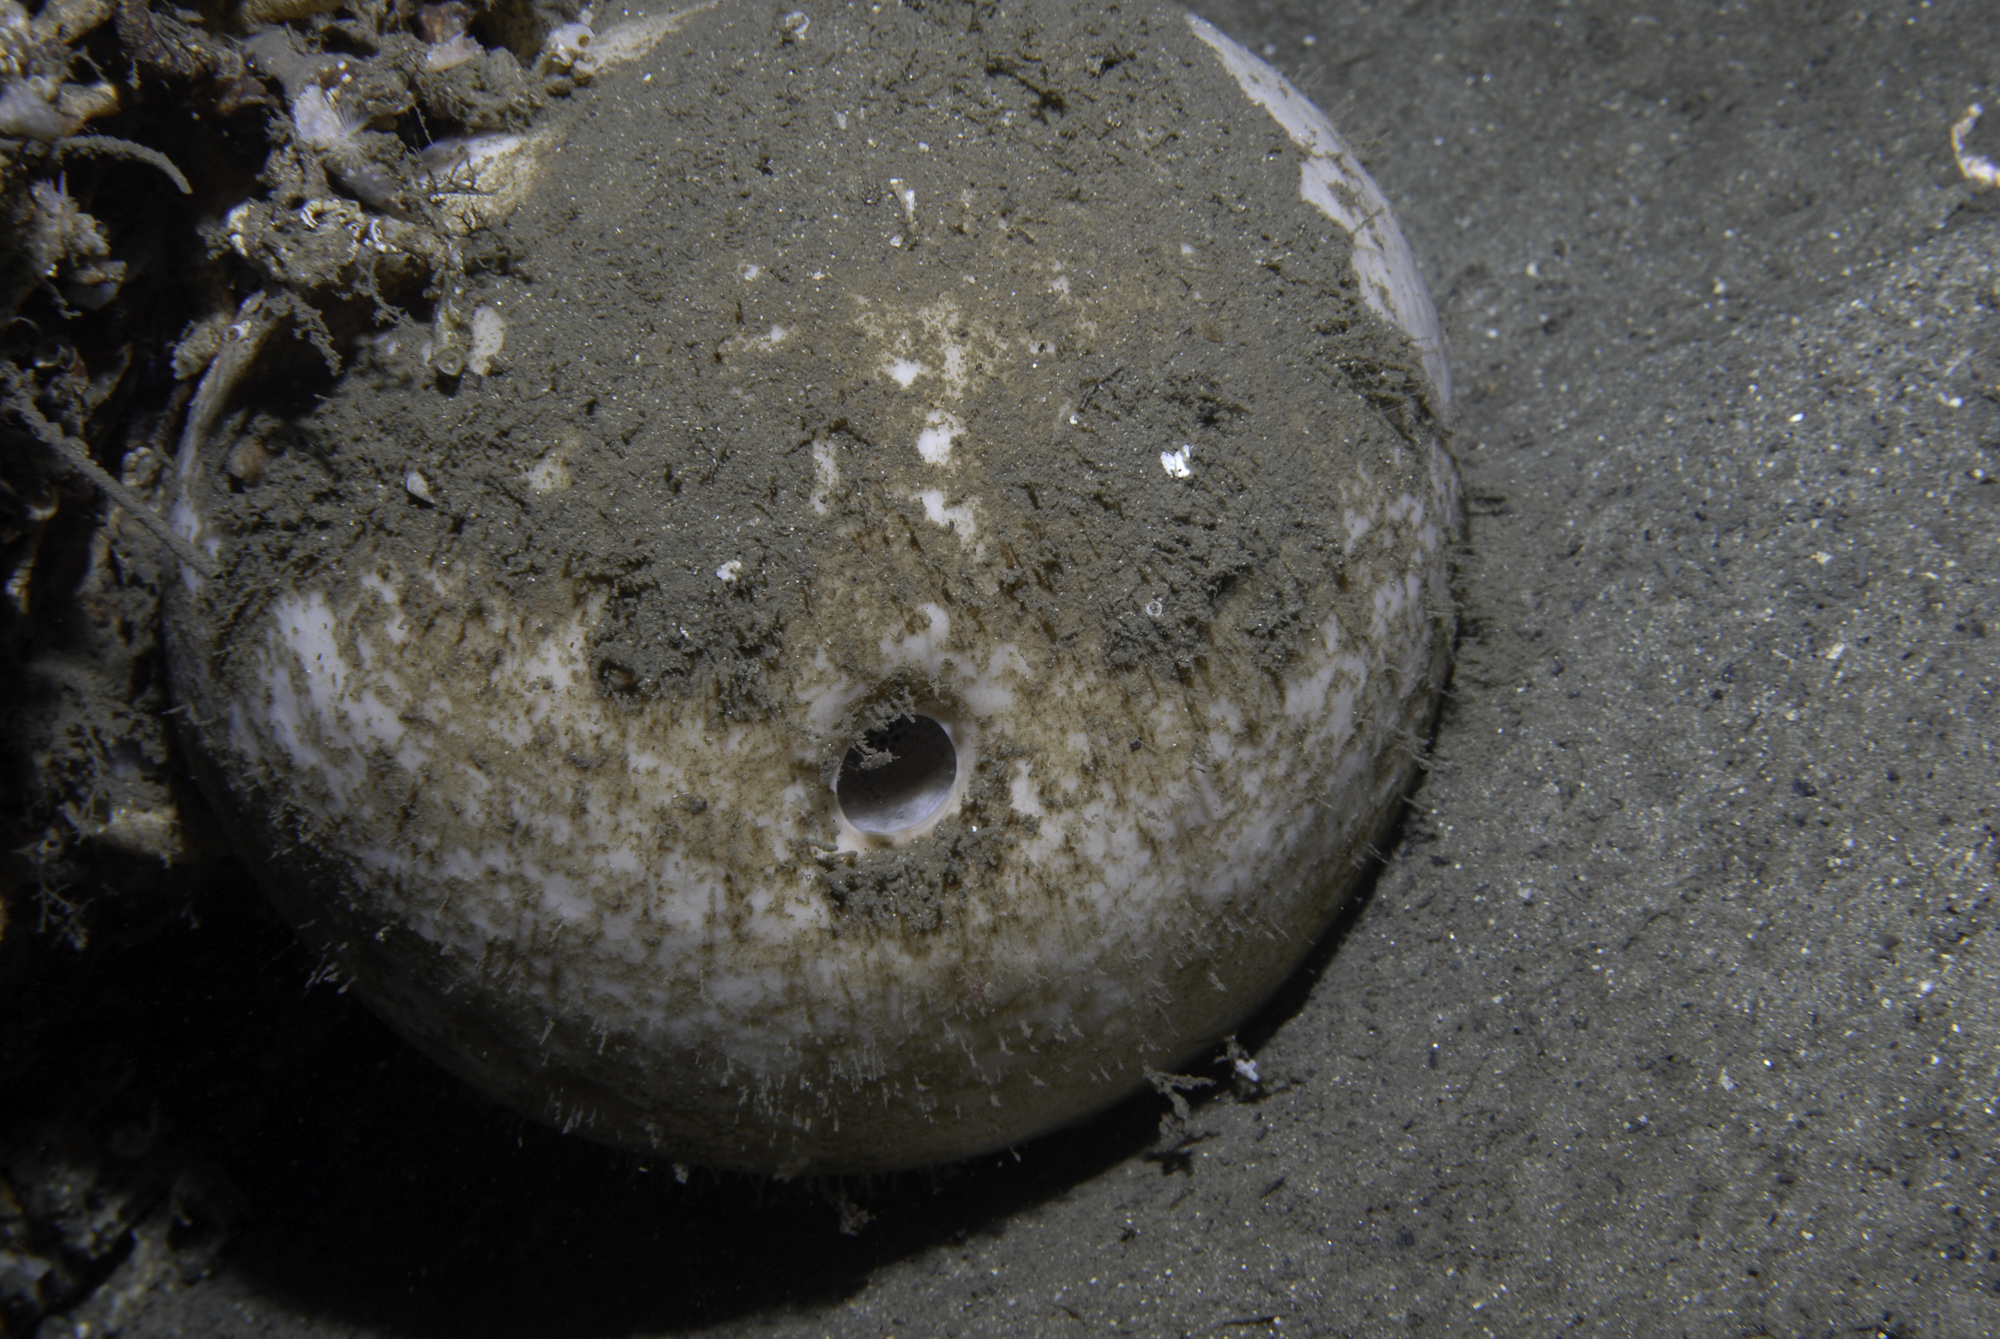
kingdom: Animalia
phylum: Porifera
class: Demospongiae
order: Tetractinellida
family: Geodiidae
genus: Geodia
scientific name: Geodia barretti
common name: Barrett's horny sponge
